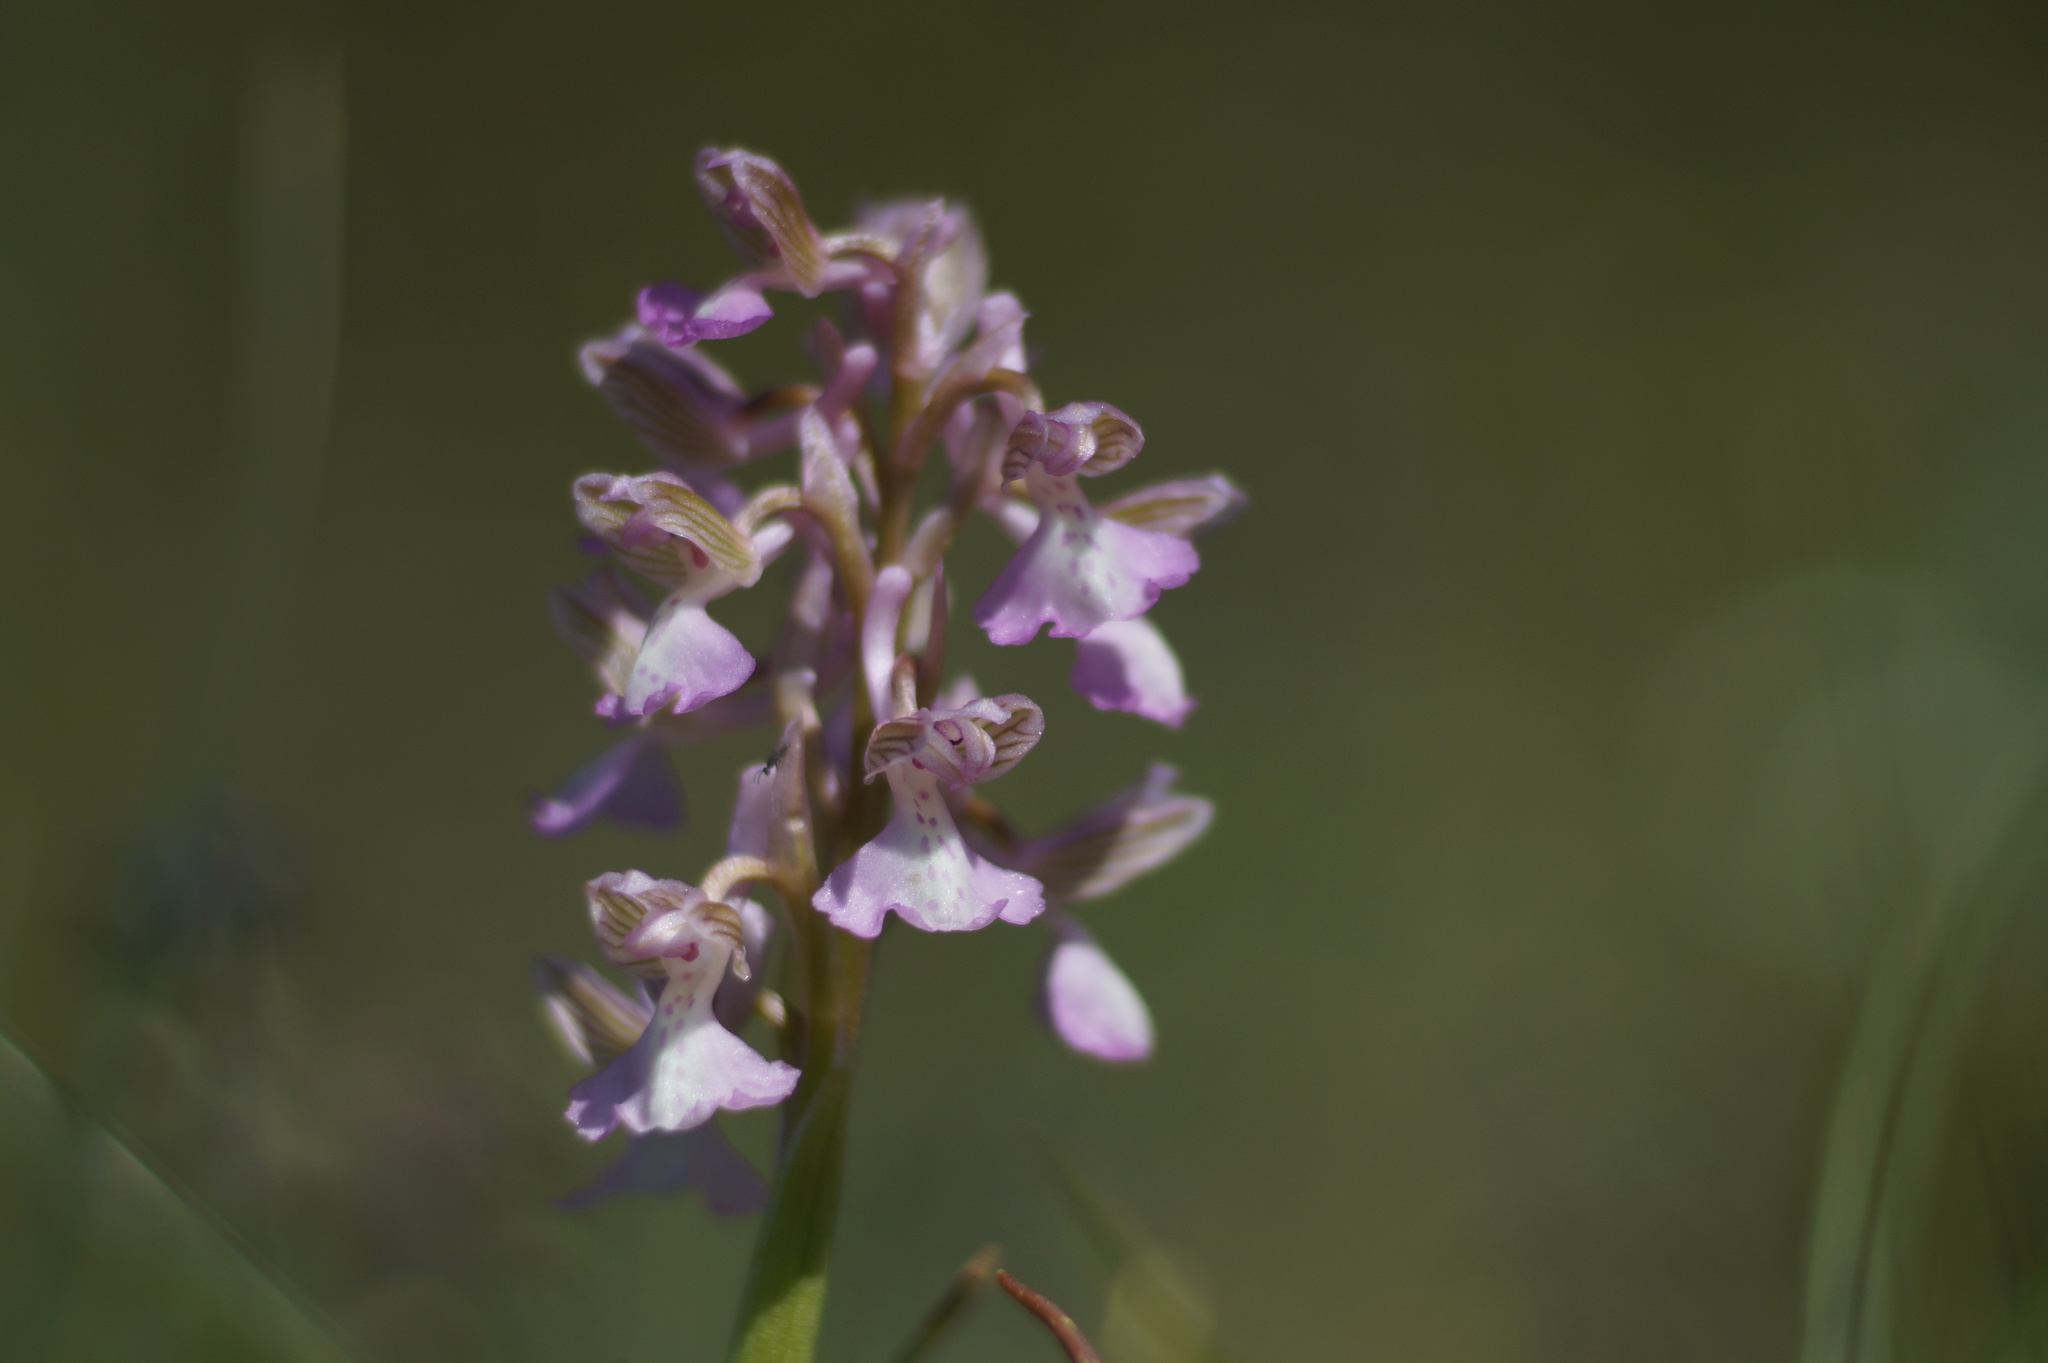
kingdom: Plantae
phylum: Tracheophyta
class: Liliopsida
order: Asparagales
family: Orchidaceae
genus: Anacamptis
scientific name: Anacamptis morio
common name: Green-winged orchid
